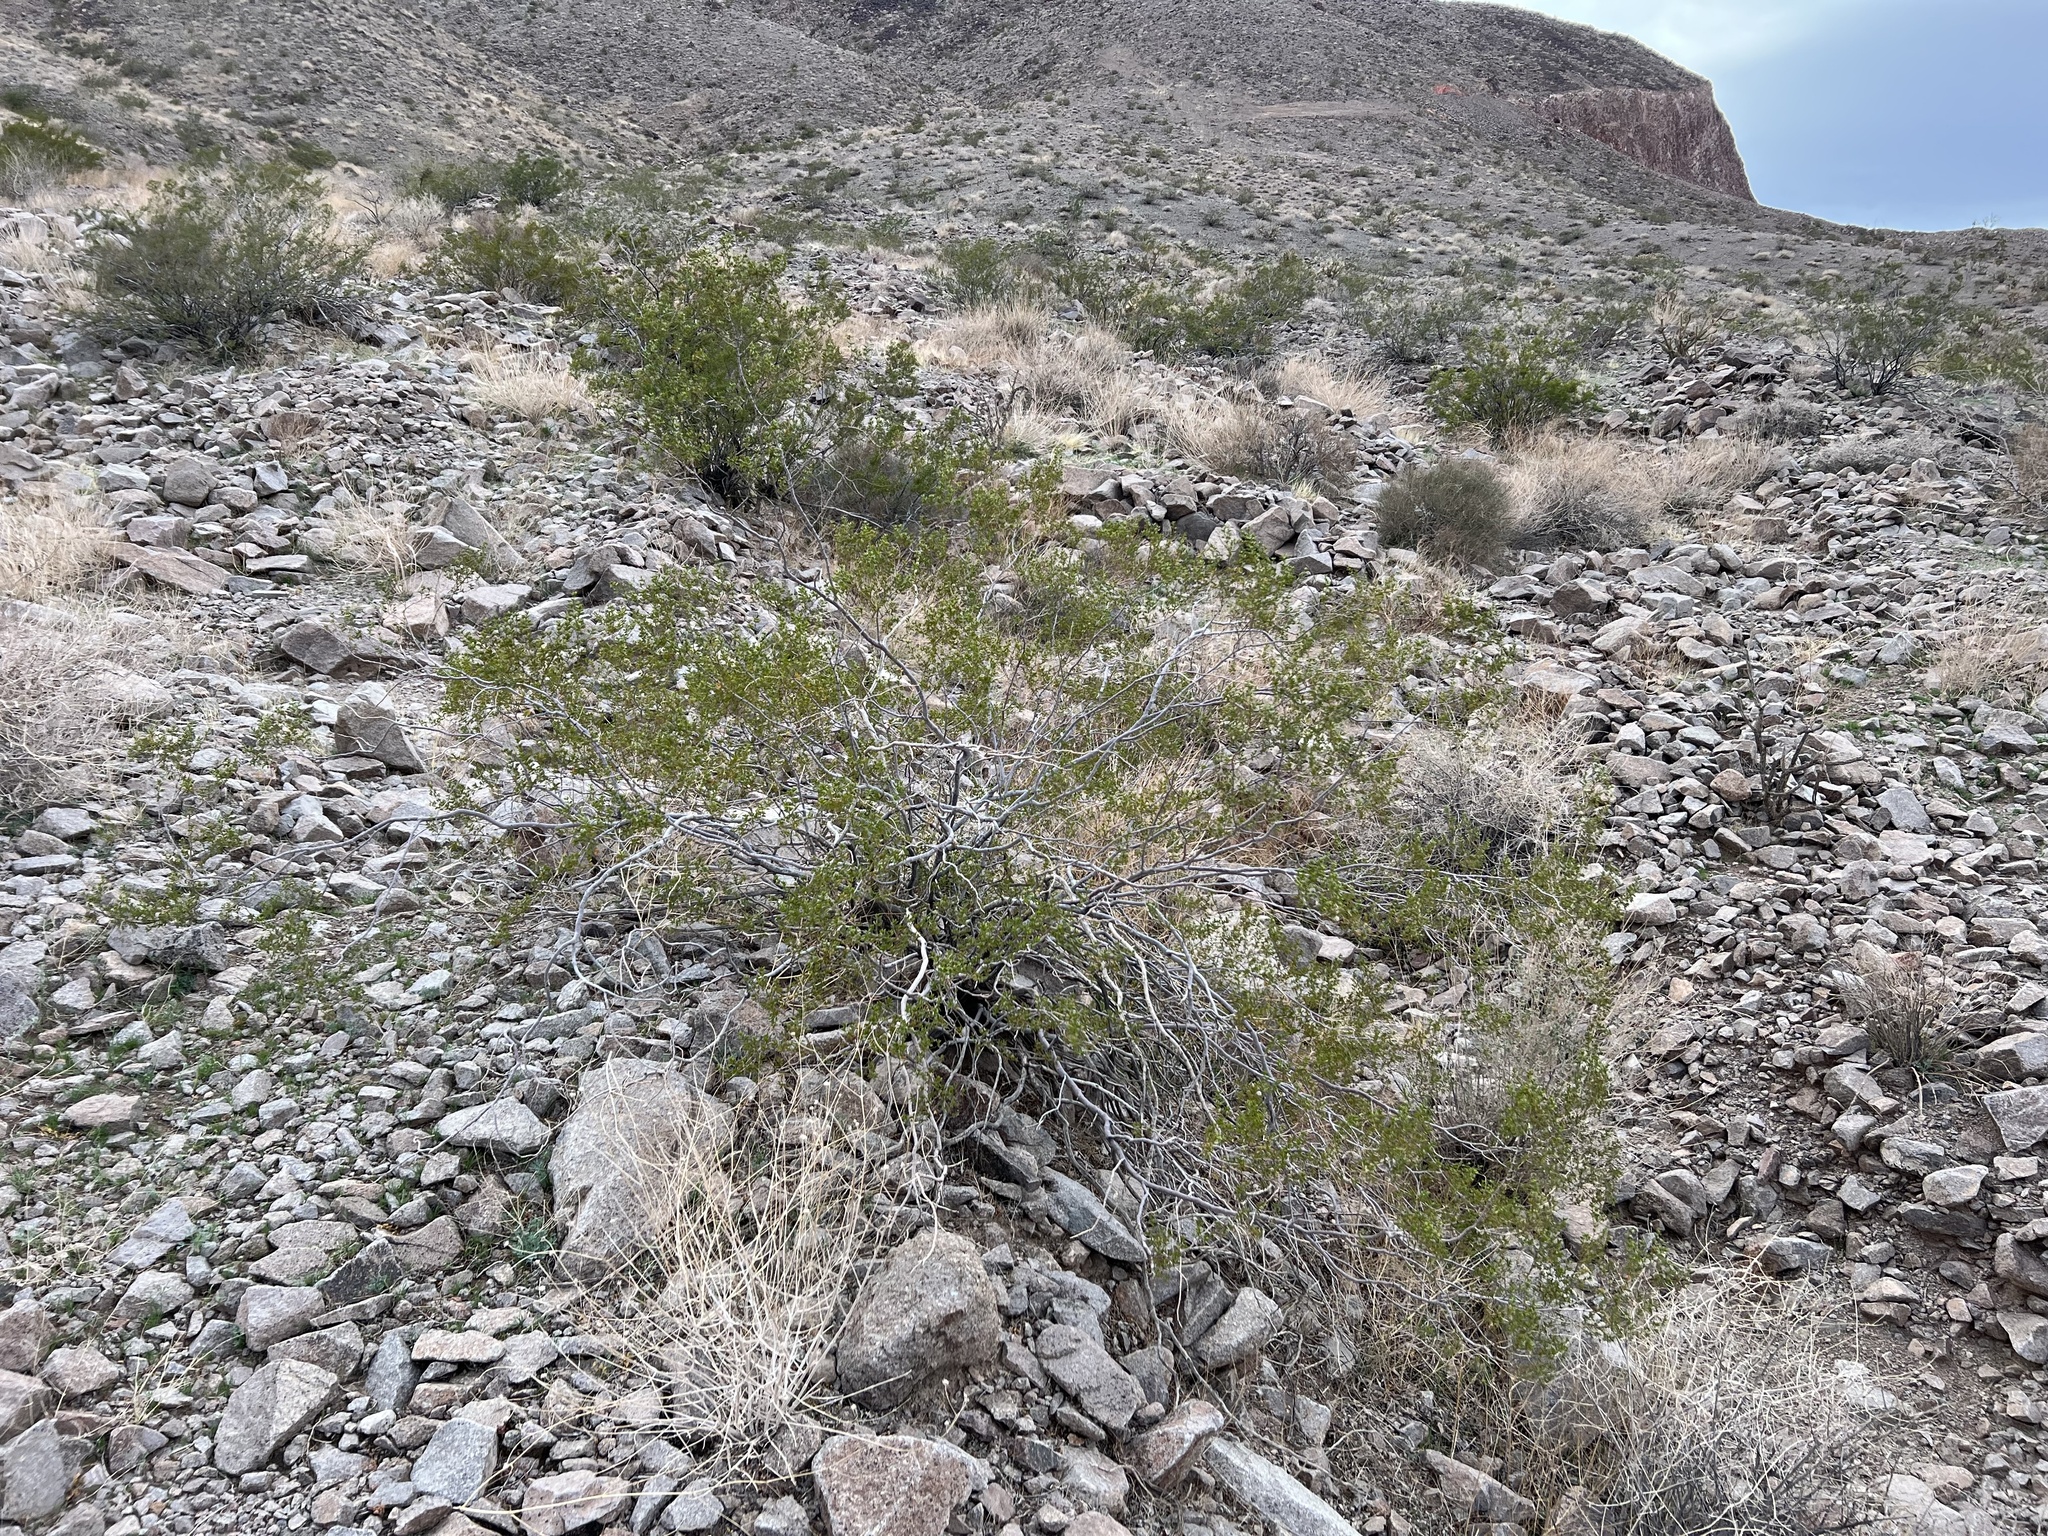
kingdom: Plantae
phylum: Tracheophyta
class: Magnoliopsida
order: Zygophyllales
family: Zygophyllaceae
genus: Larrea
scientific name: Larrea tridentata
